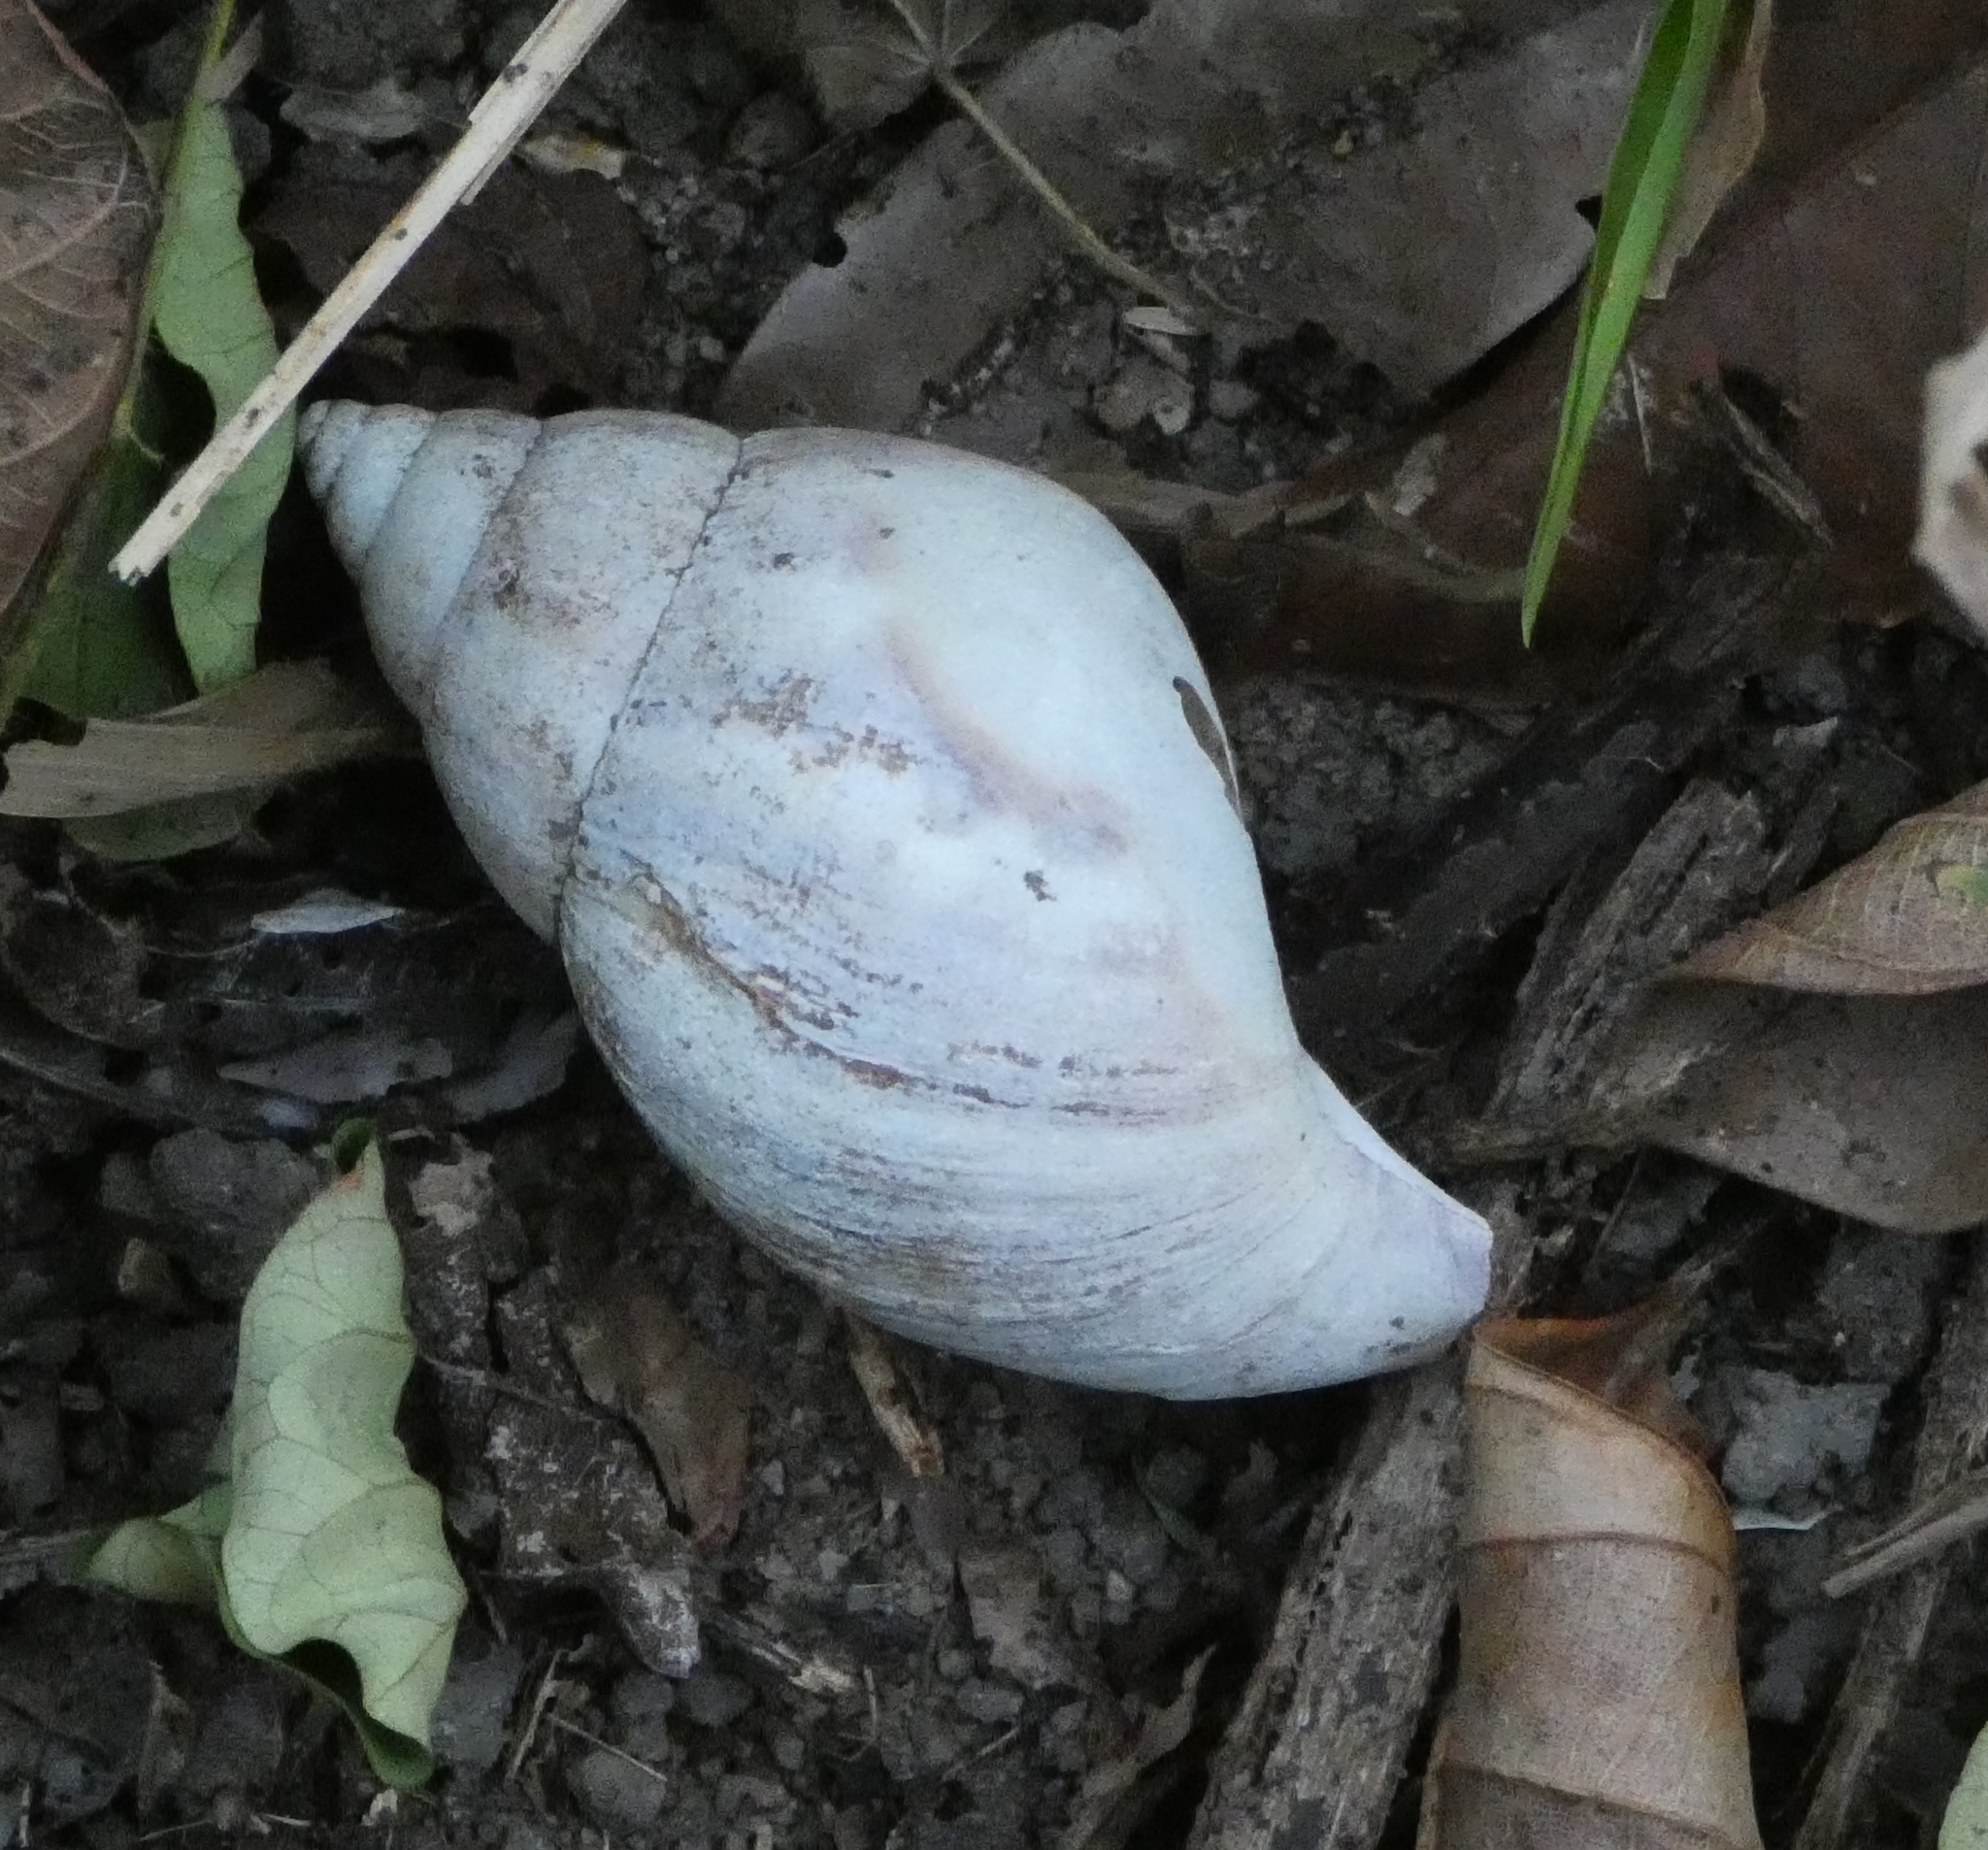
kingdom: Animalia
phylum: Mollusca
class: Gastropoda
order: Stylommatophora
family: Achatinidae
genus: Lissachatina
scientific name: Lissachatina fulica
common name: Giant african snail
